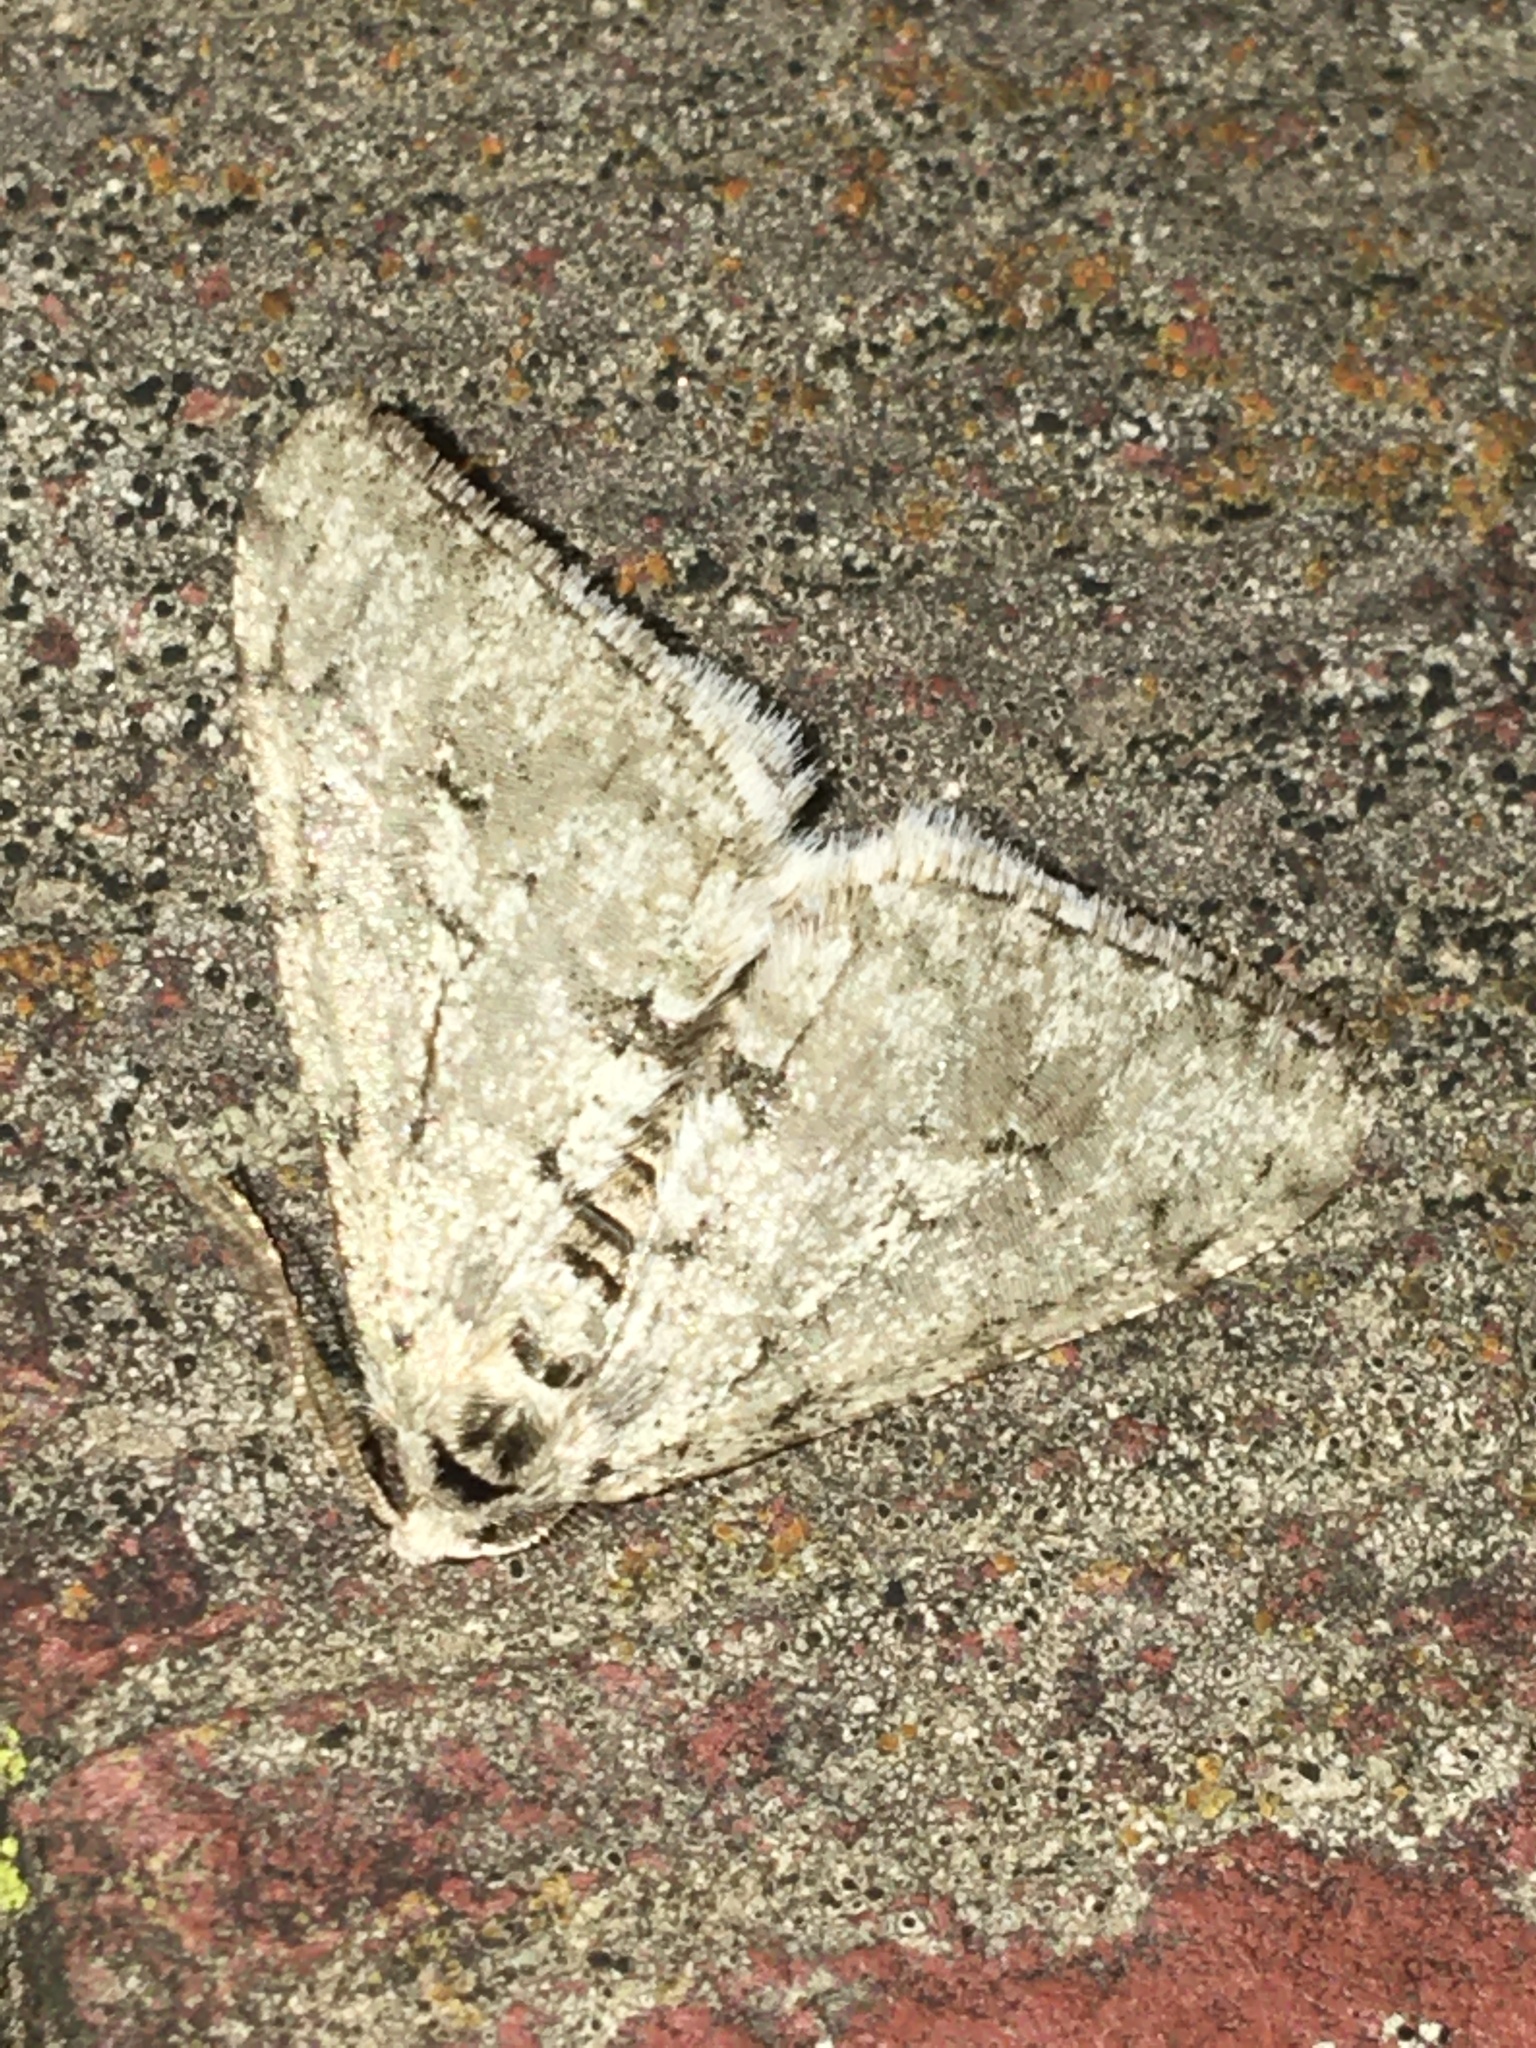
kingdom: Animalia
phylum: Arthropoda
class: Insecta
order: Lepidoptera
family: Geometridae
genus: Phigalia
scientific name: Phigalia strigataria
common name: Small phigalia
